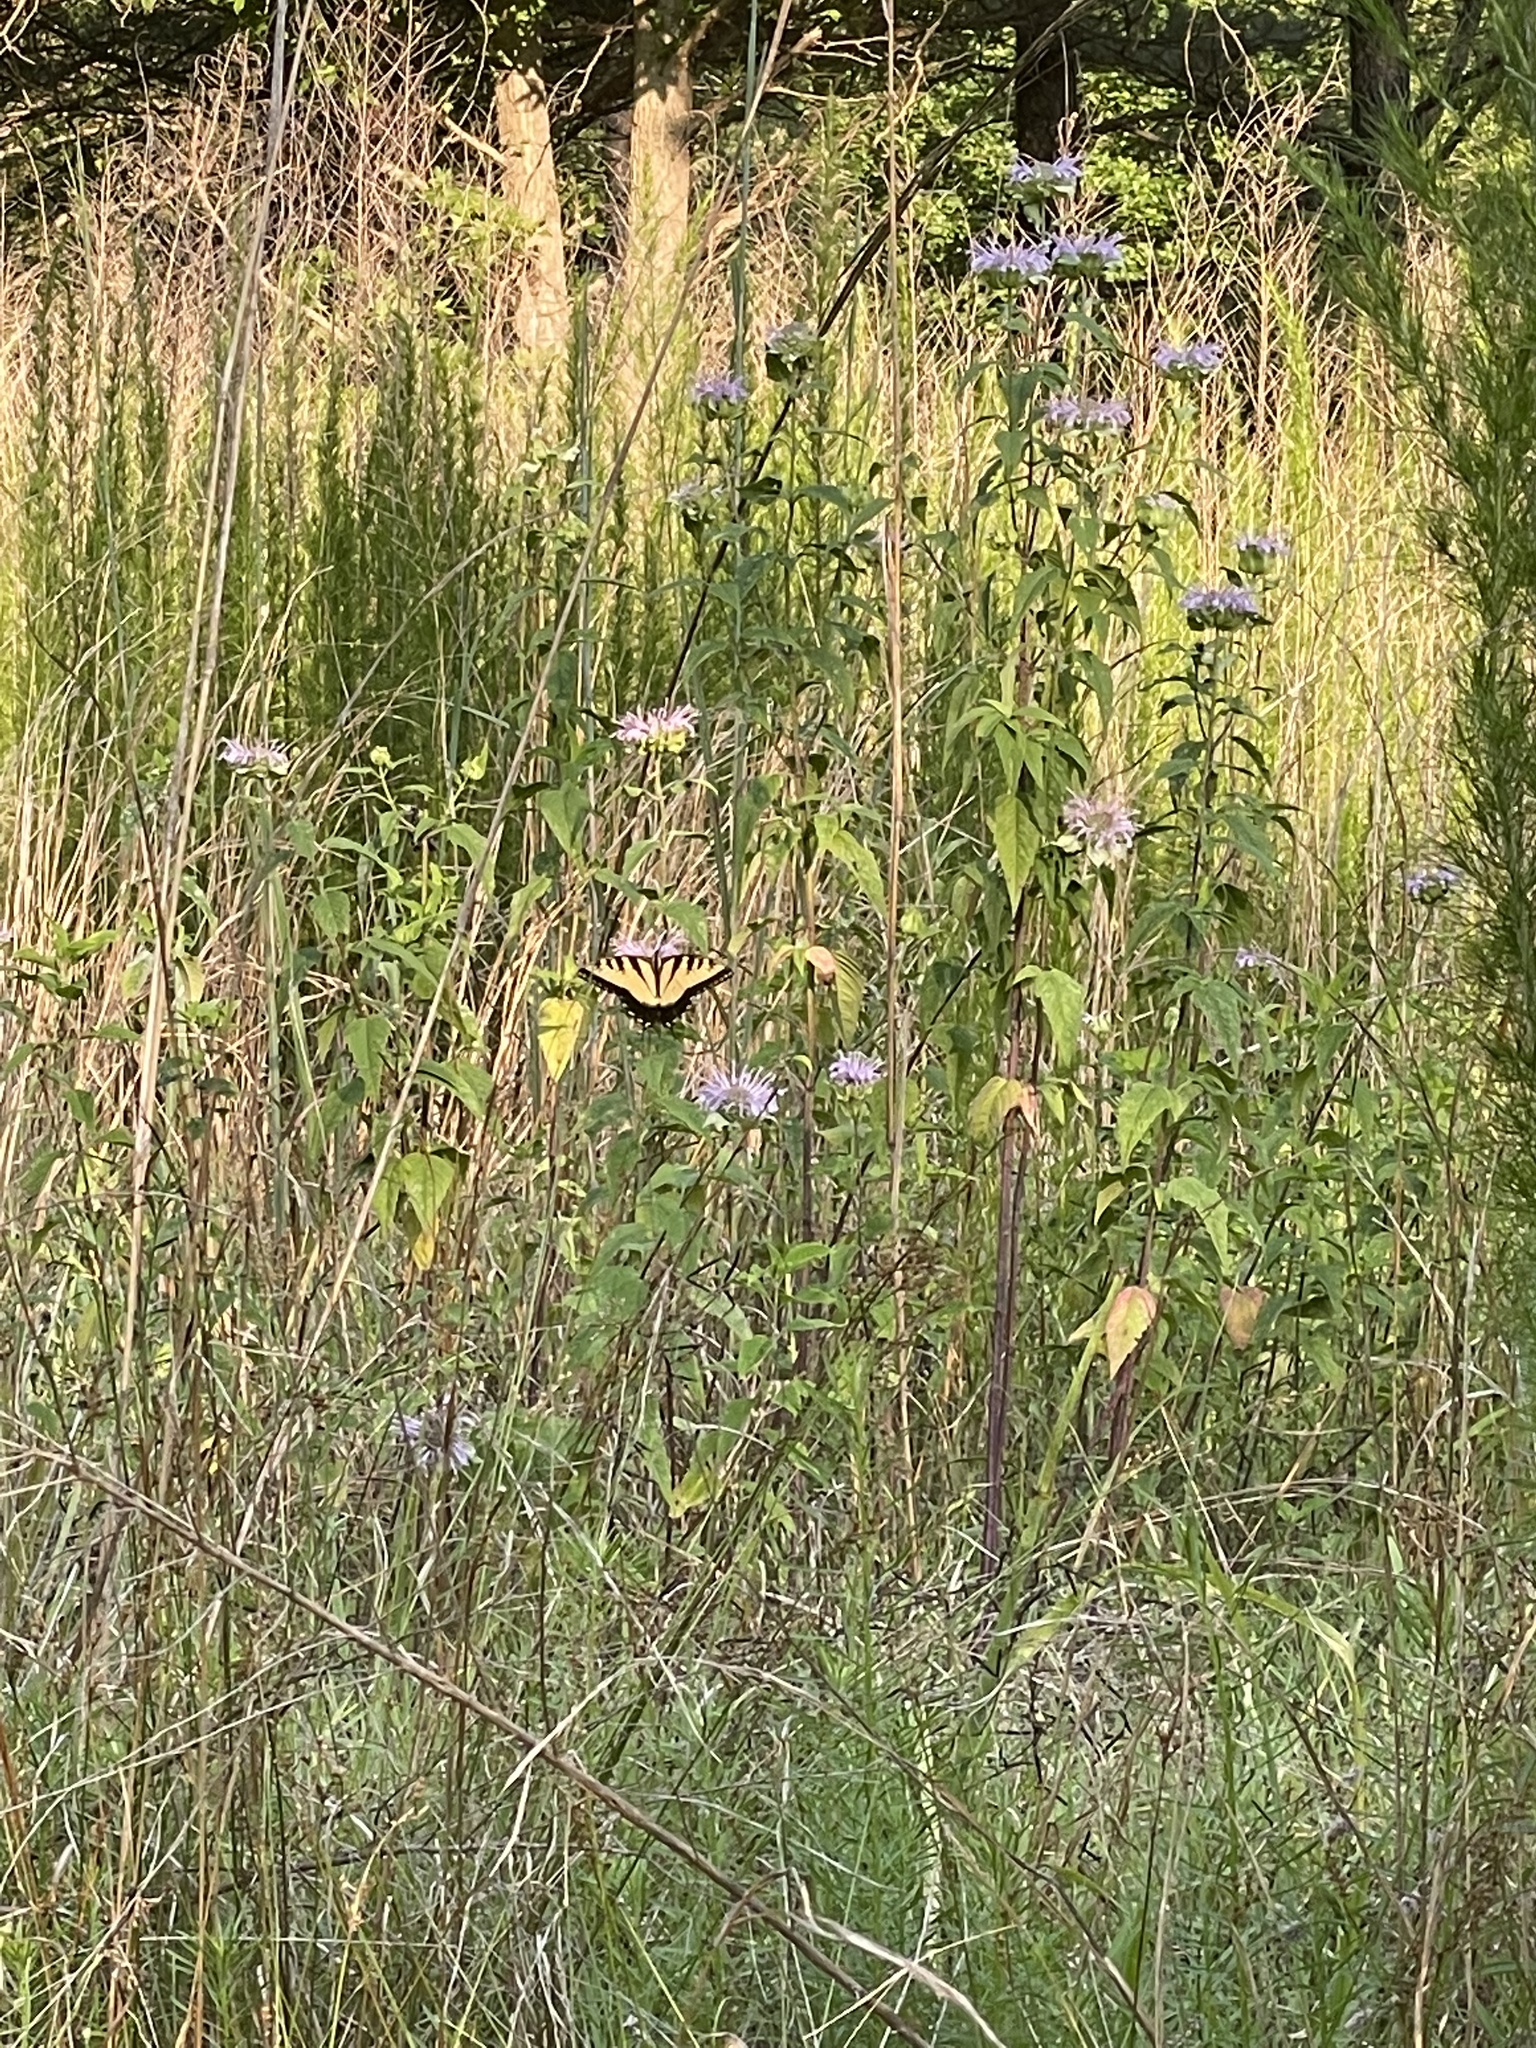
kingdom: Animalia
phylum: Arthropoda
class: Insecta
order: Lepidoptera
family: Papilionidae
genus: Papilio
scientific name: Papilio glaucus
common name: Tiger swallowtail
